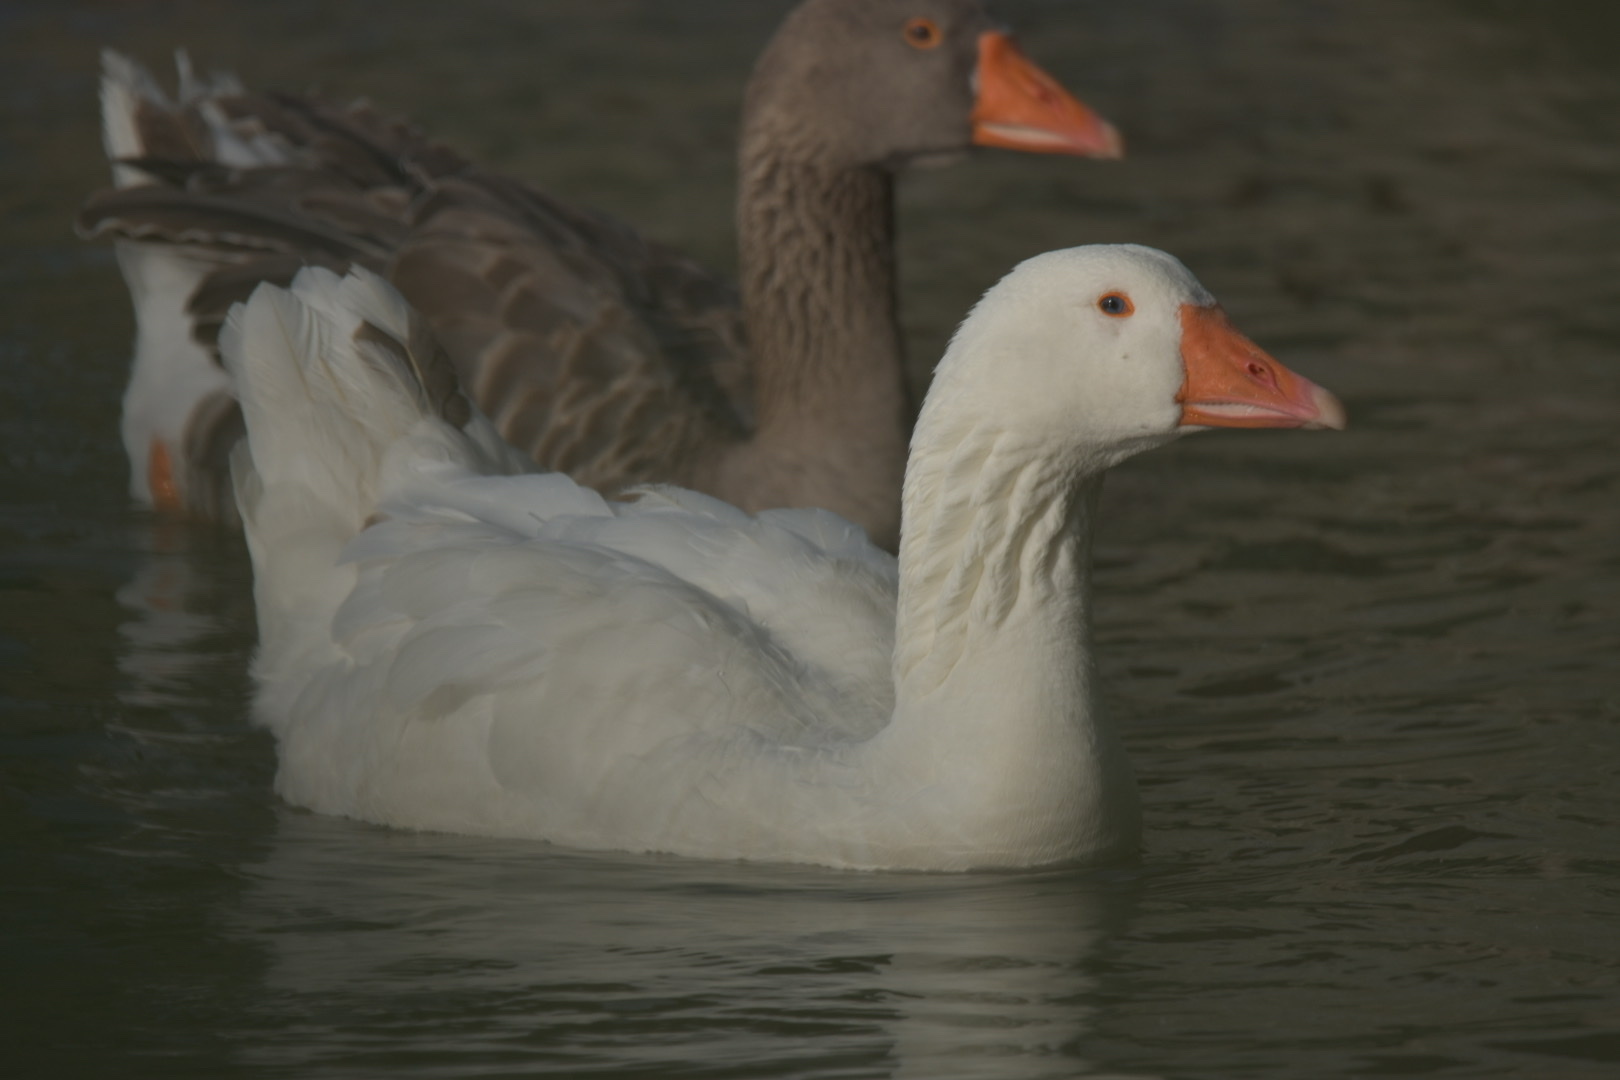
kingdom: Animalia
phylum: Chordata
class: Aves
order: Anseriformes
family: Anatidae
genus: Anser
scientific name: Anser anser
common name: Greylag goose
